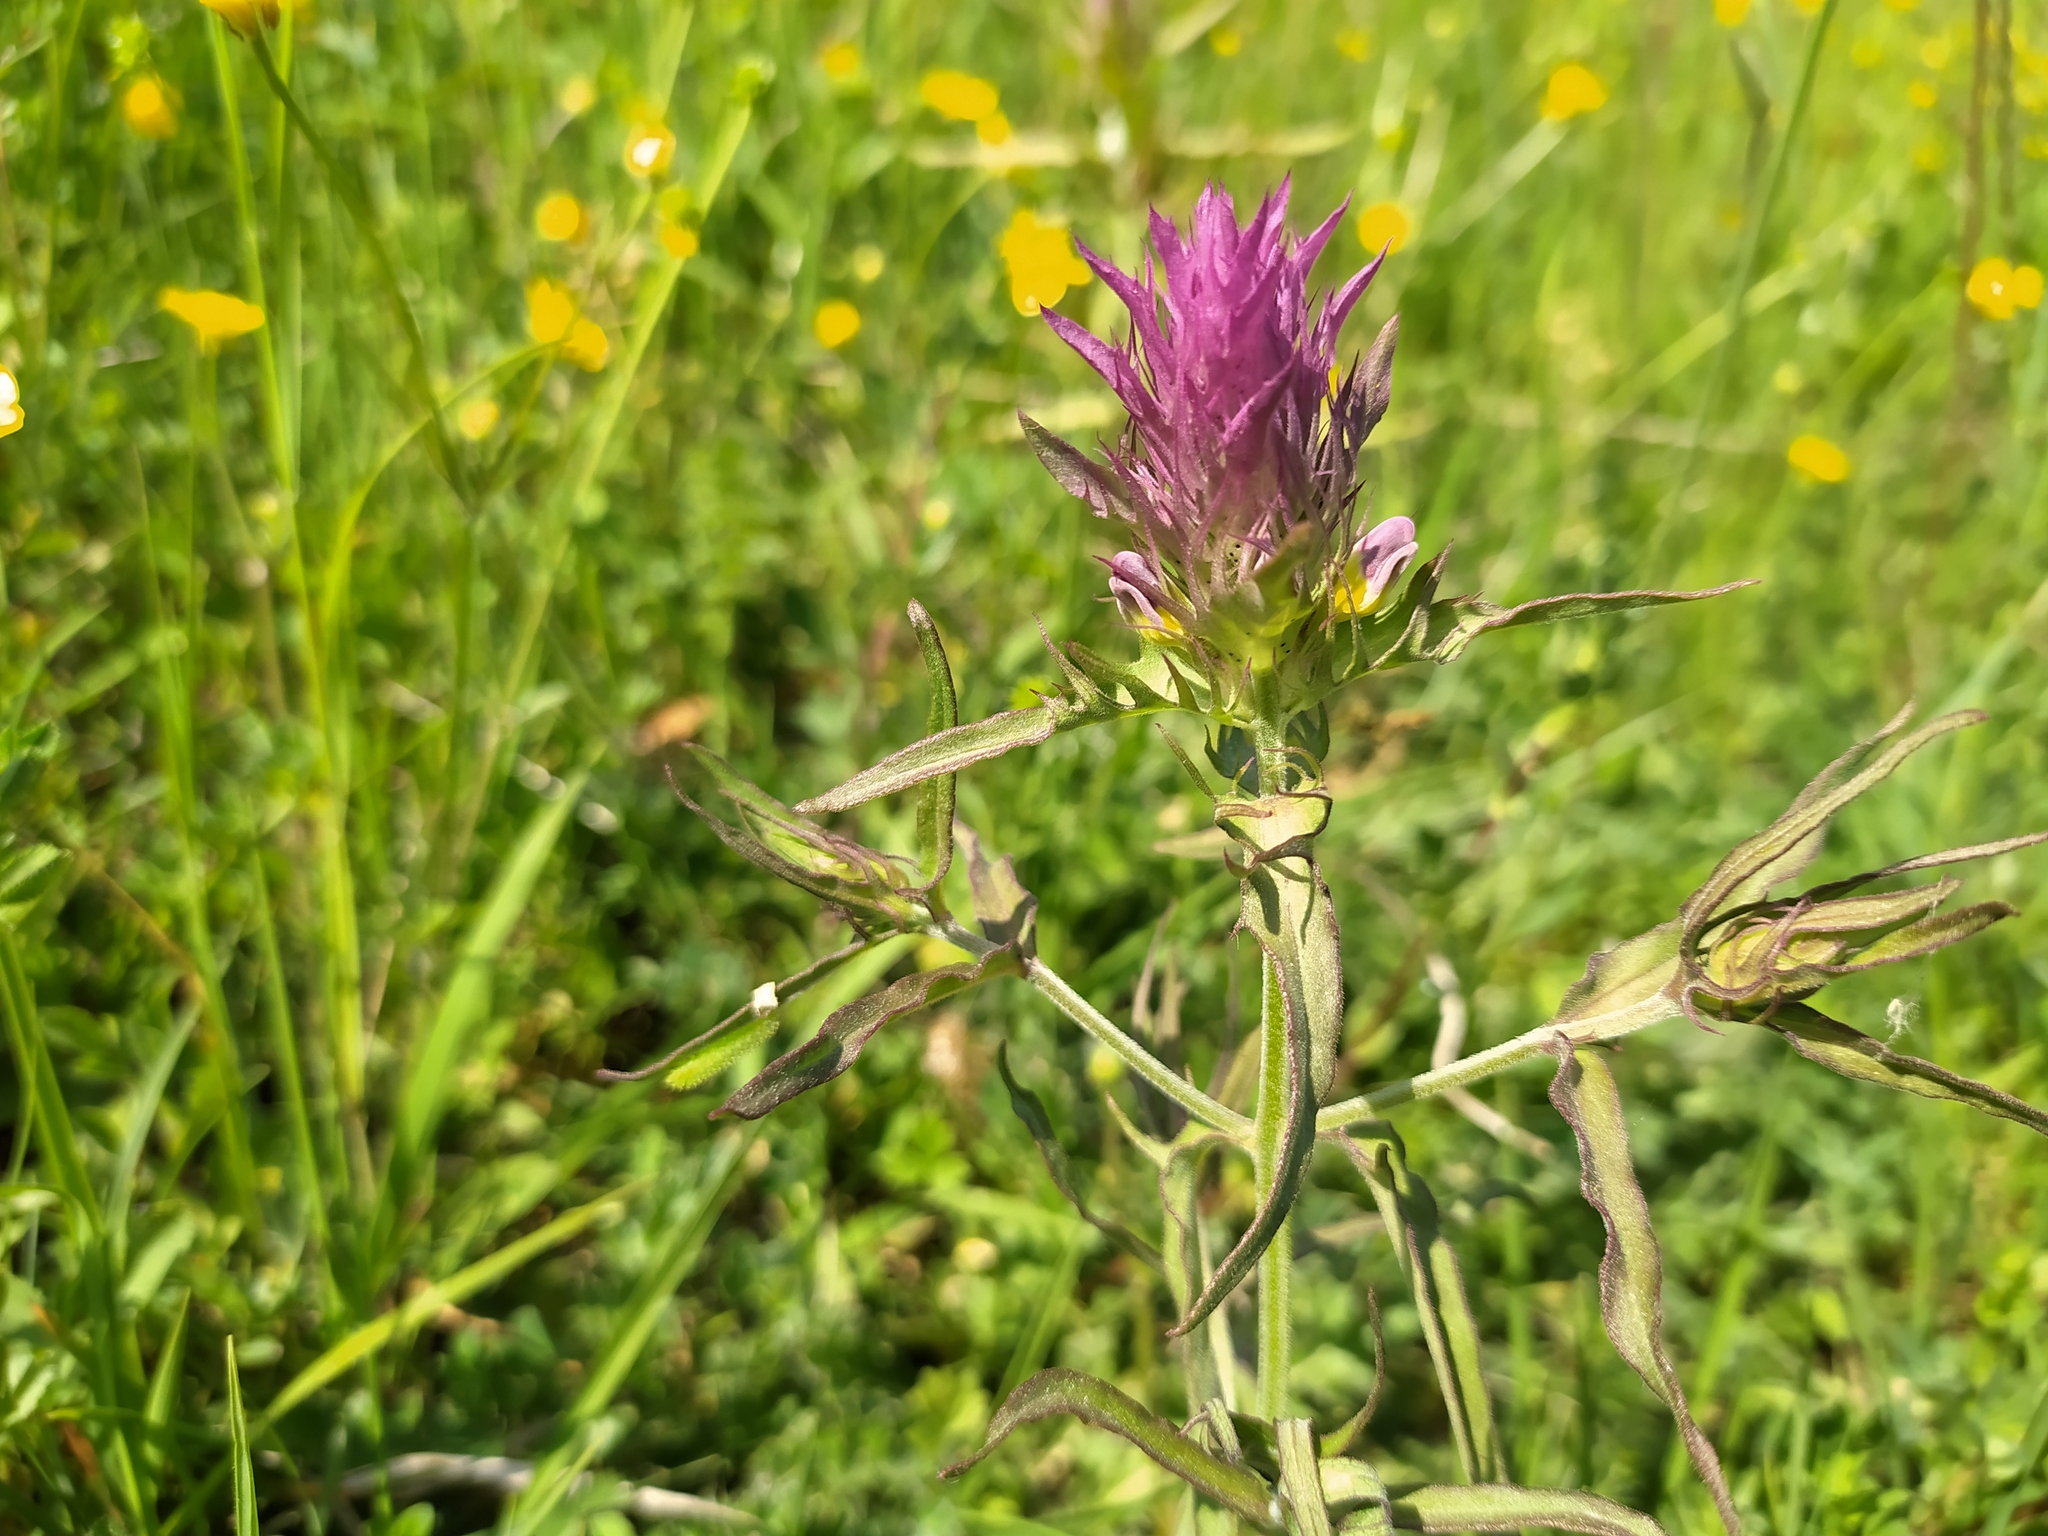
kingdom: Plantae
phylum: Tracheophyta
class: Magnoliopsida
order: Lamiales
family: Orobanchaceae
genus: Melampyrum
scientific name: Melampyrum arvense
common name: Field cow-wheat
